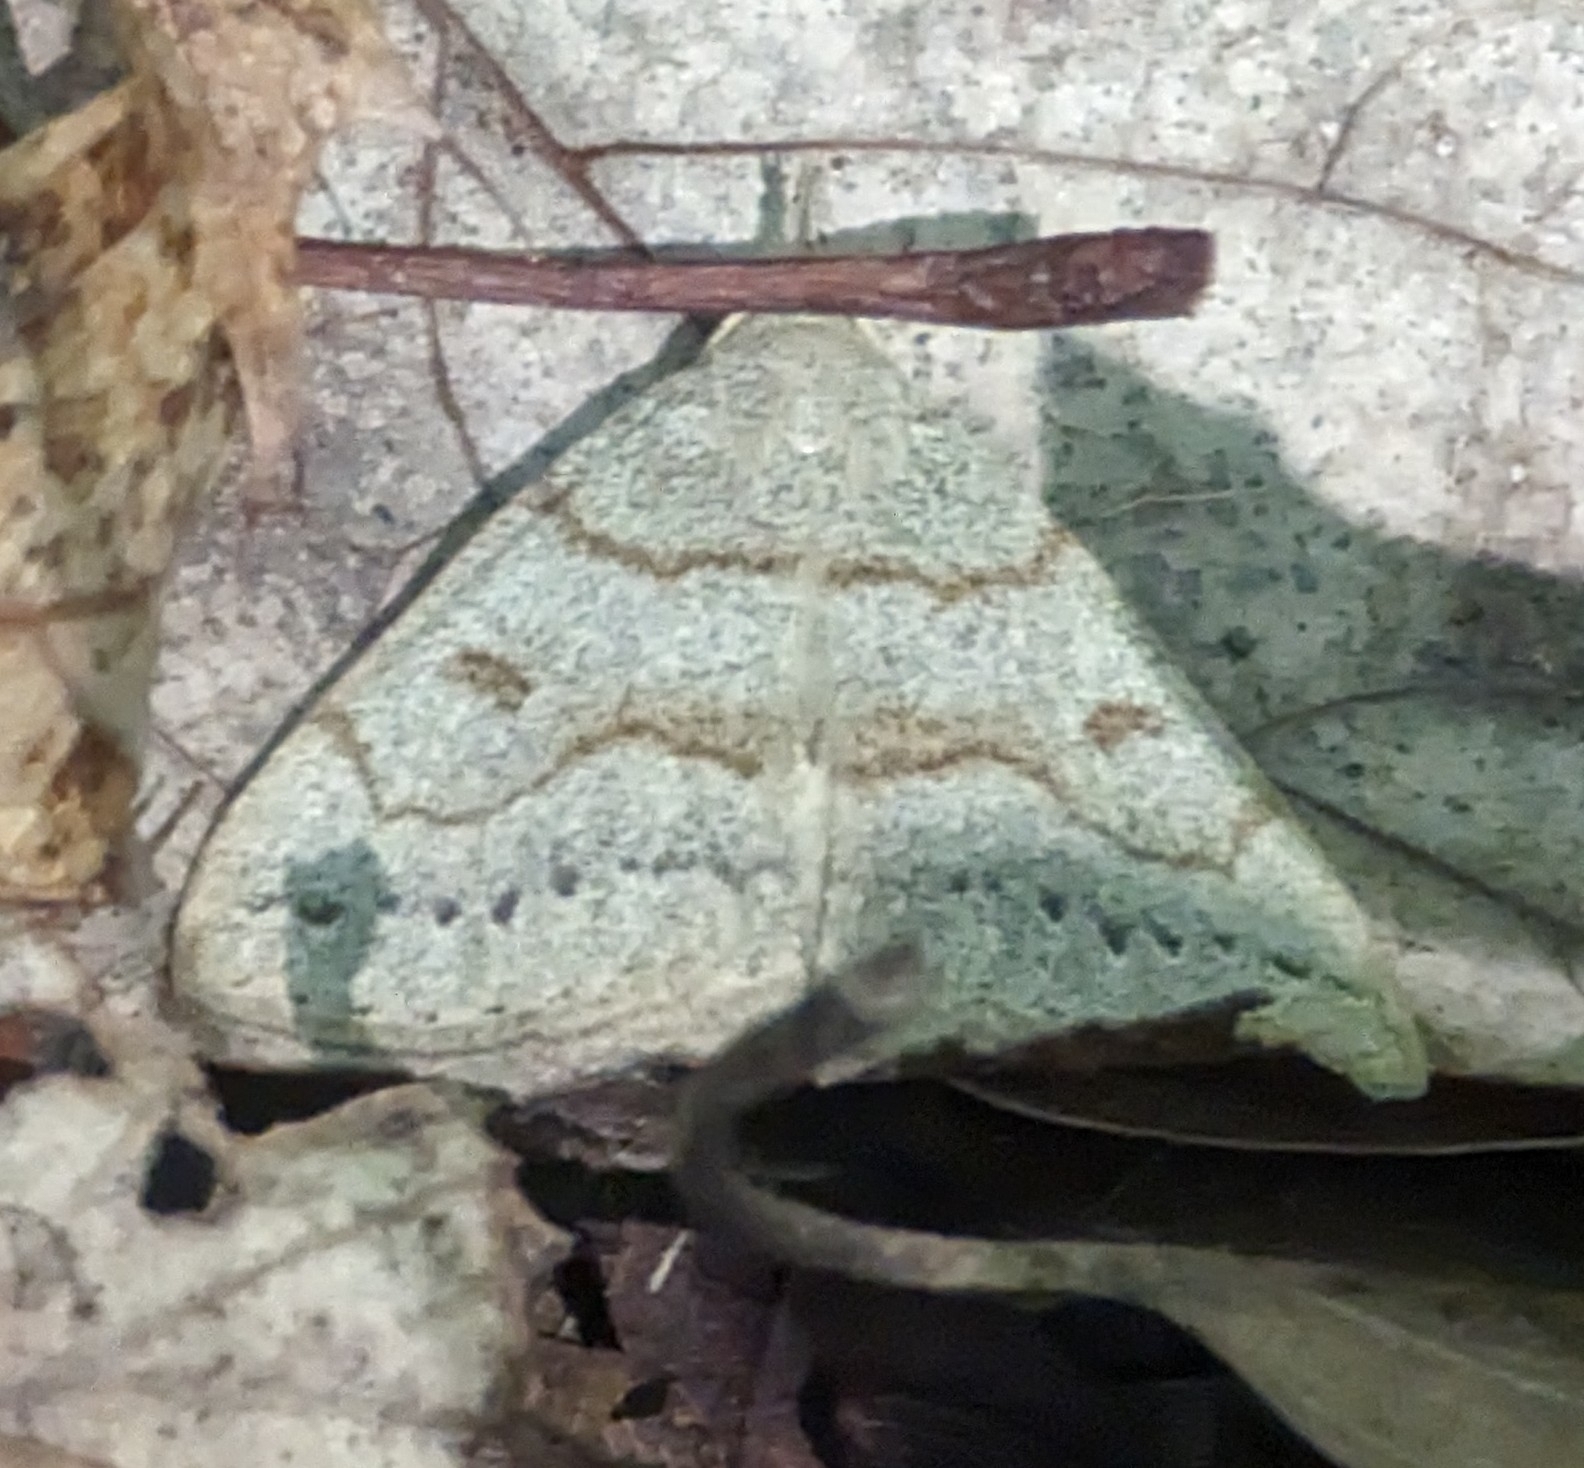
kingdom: Animalia
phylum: Arthropoda
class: Insecta
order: Lepidoptera
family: Erebidae
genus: Macrochilo
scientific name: Macrochilo morbidalis
